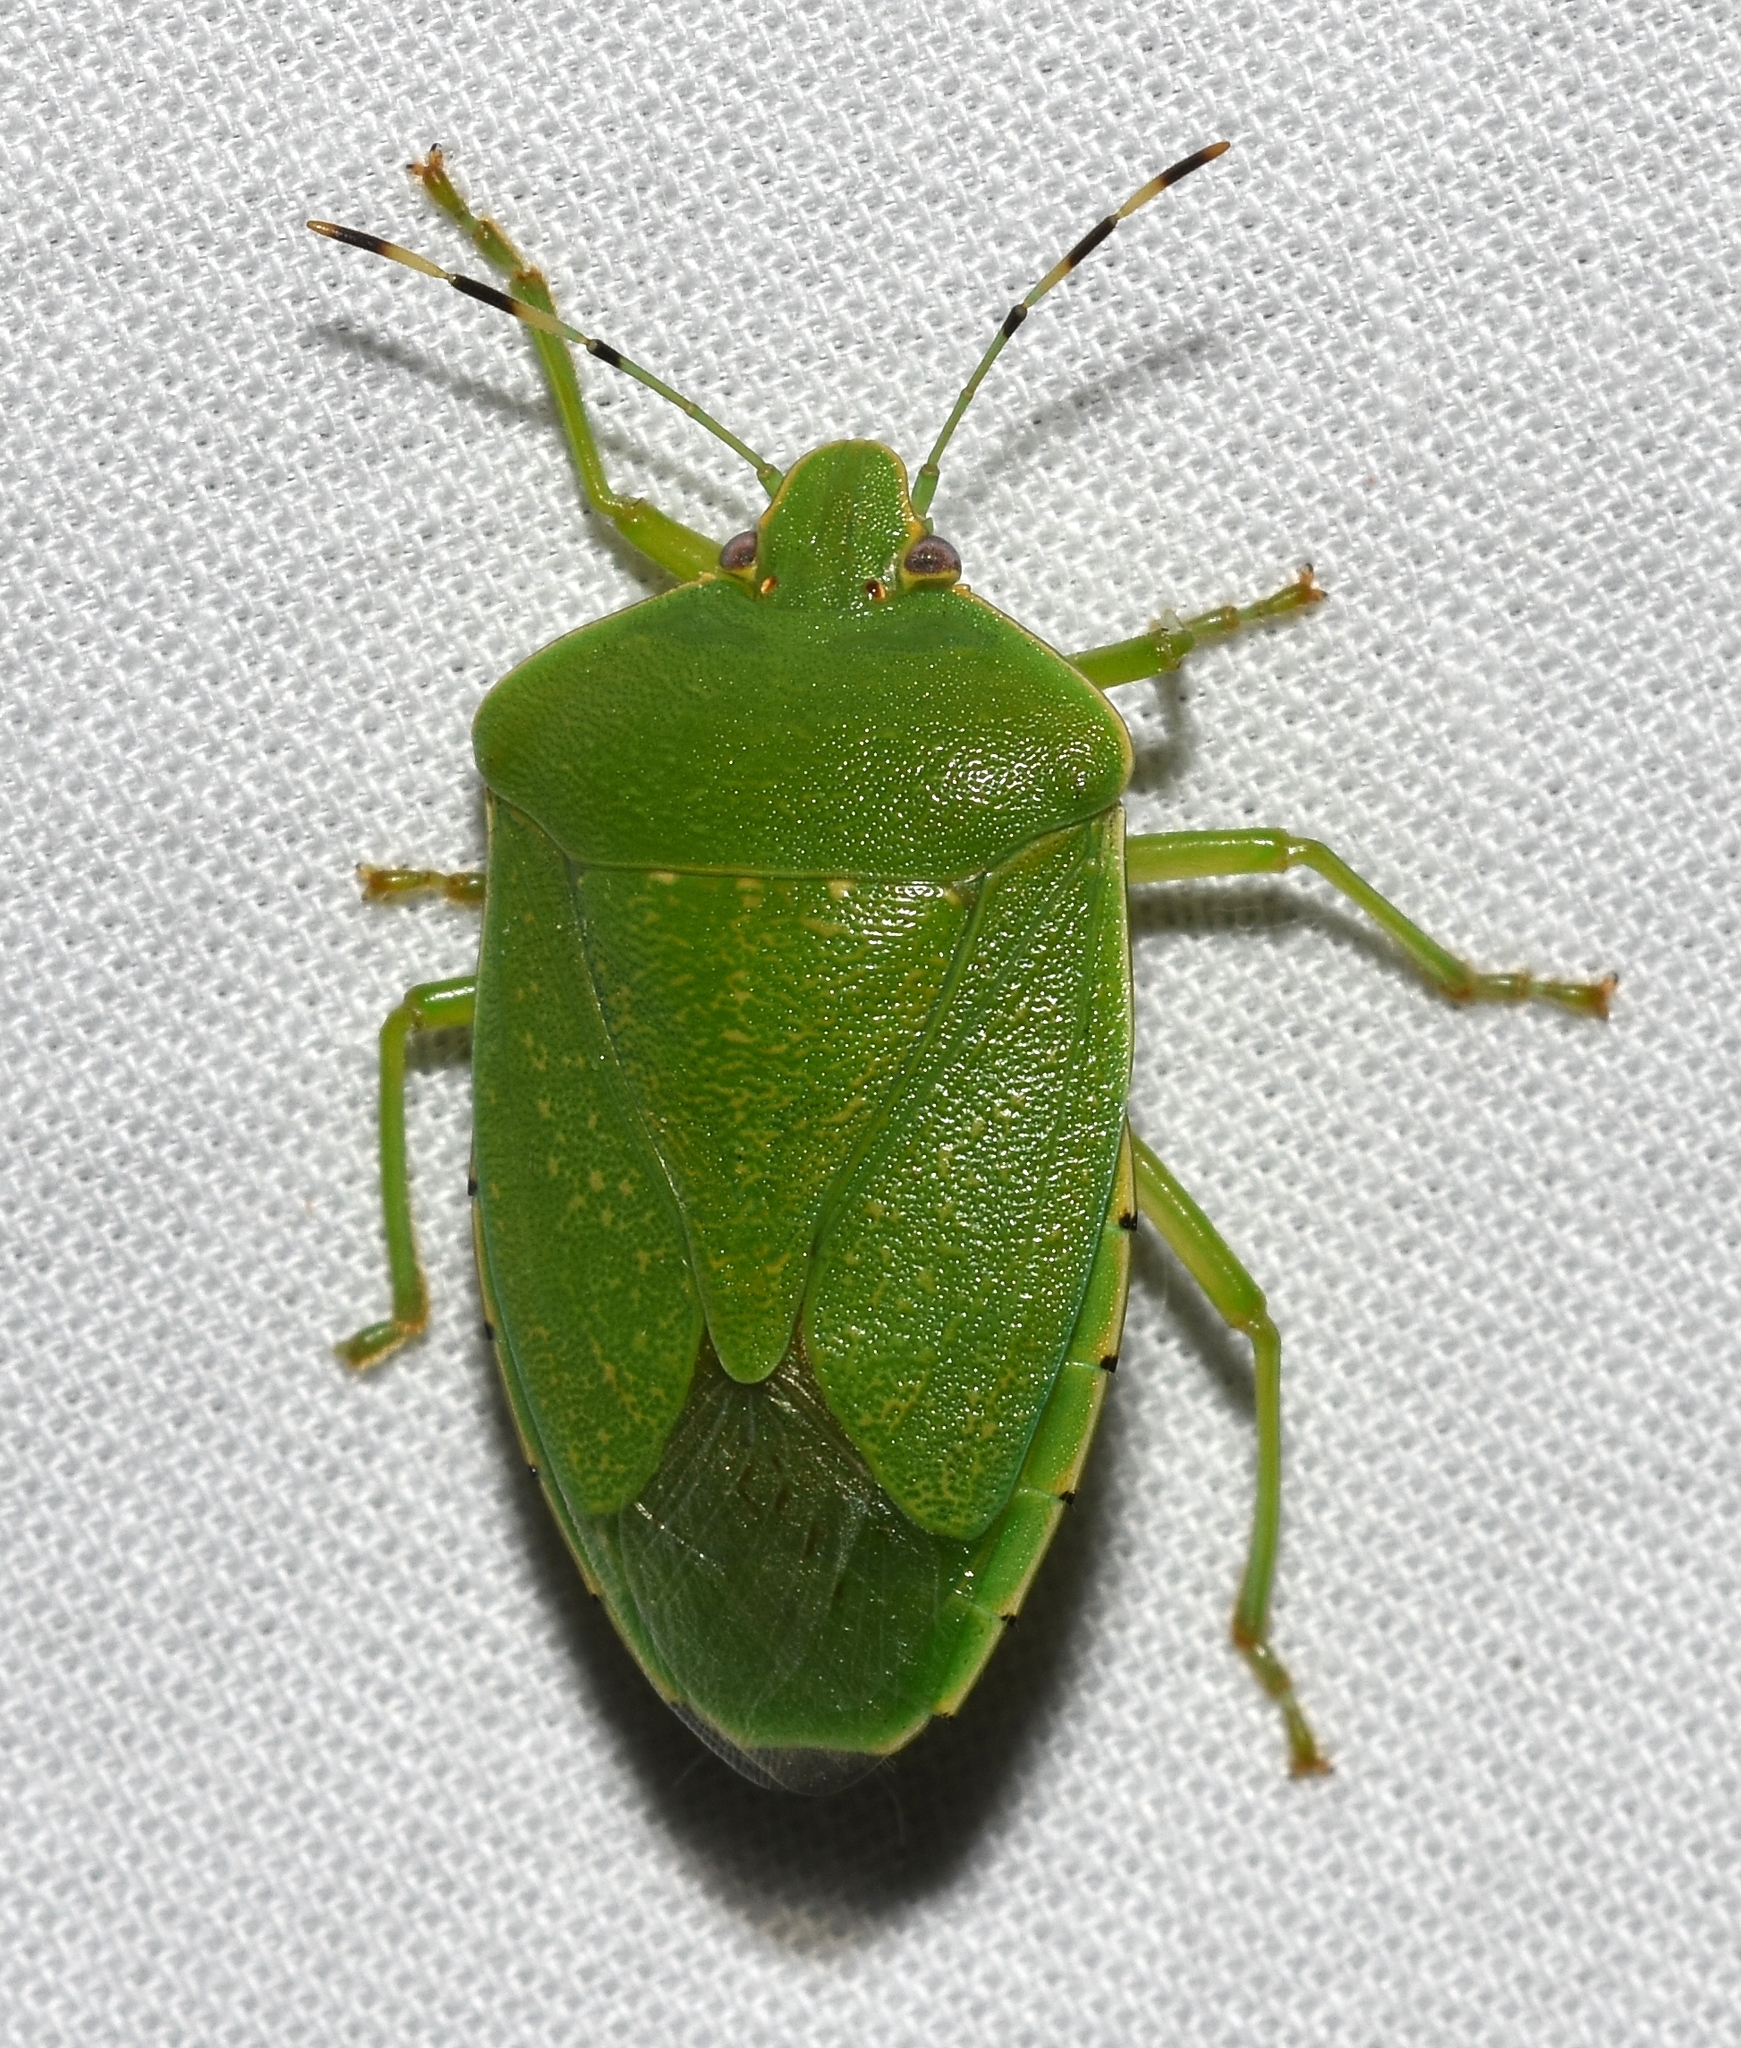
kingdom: Animalia
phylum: Arthropoda
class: Insecta
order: Hemiptera
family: Pentatomidae
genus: Chinavia
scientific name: Chinavia hilaris
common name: Green stink bug
